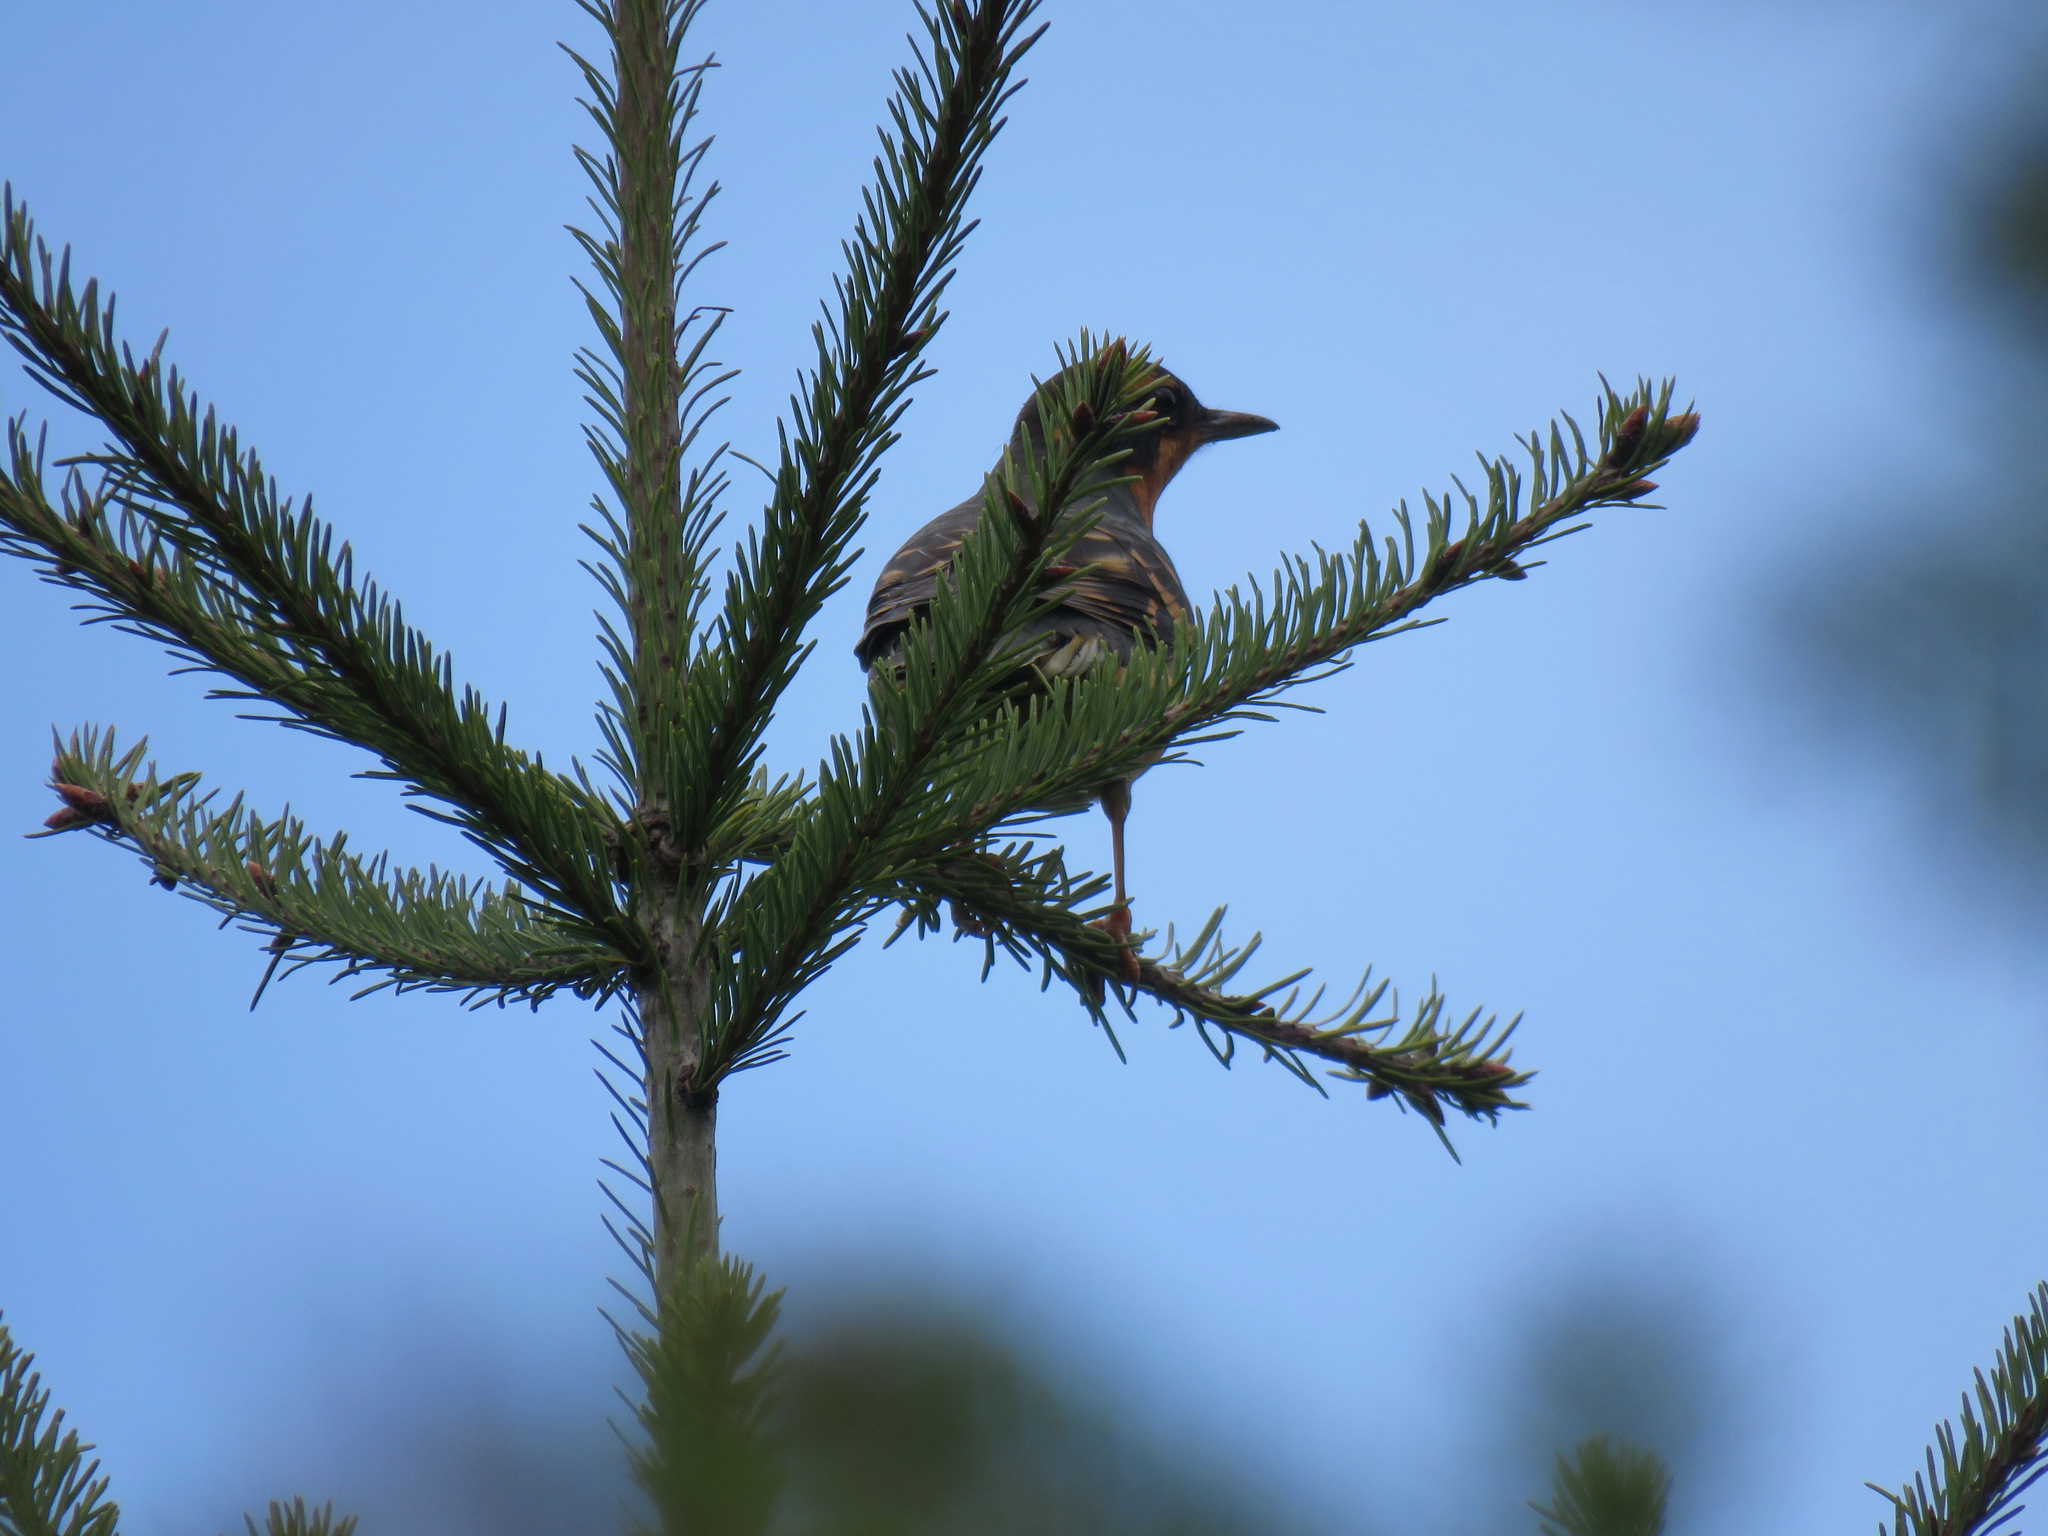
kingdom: Animalia
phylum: Chordata
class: Aves
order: Passeriformes
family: Turdidae
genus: Ixoreus
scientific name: Ixoreus naevius
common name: Varied thrush
